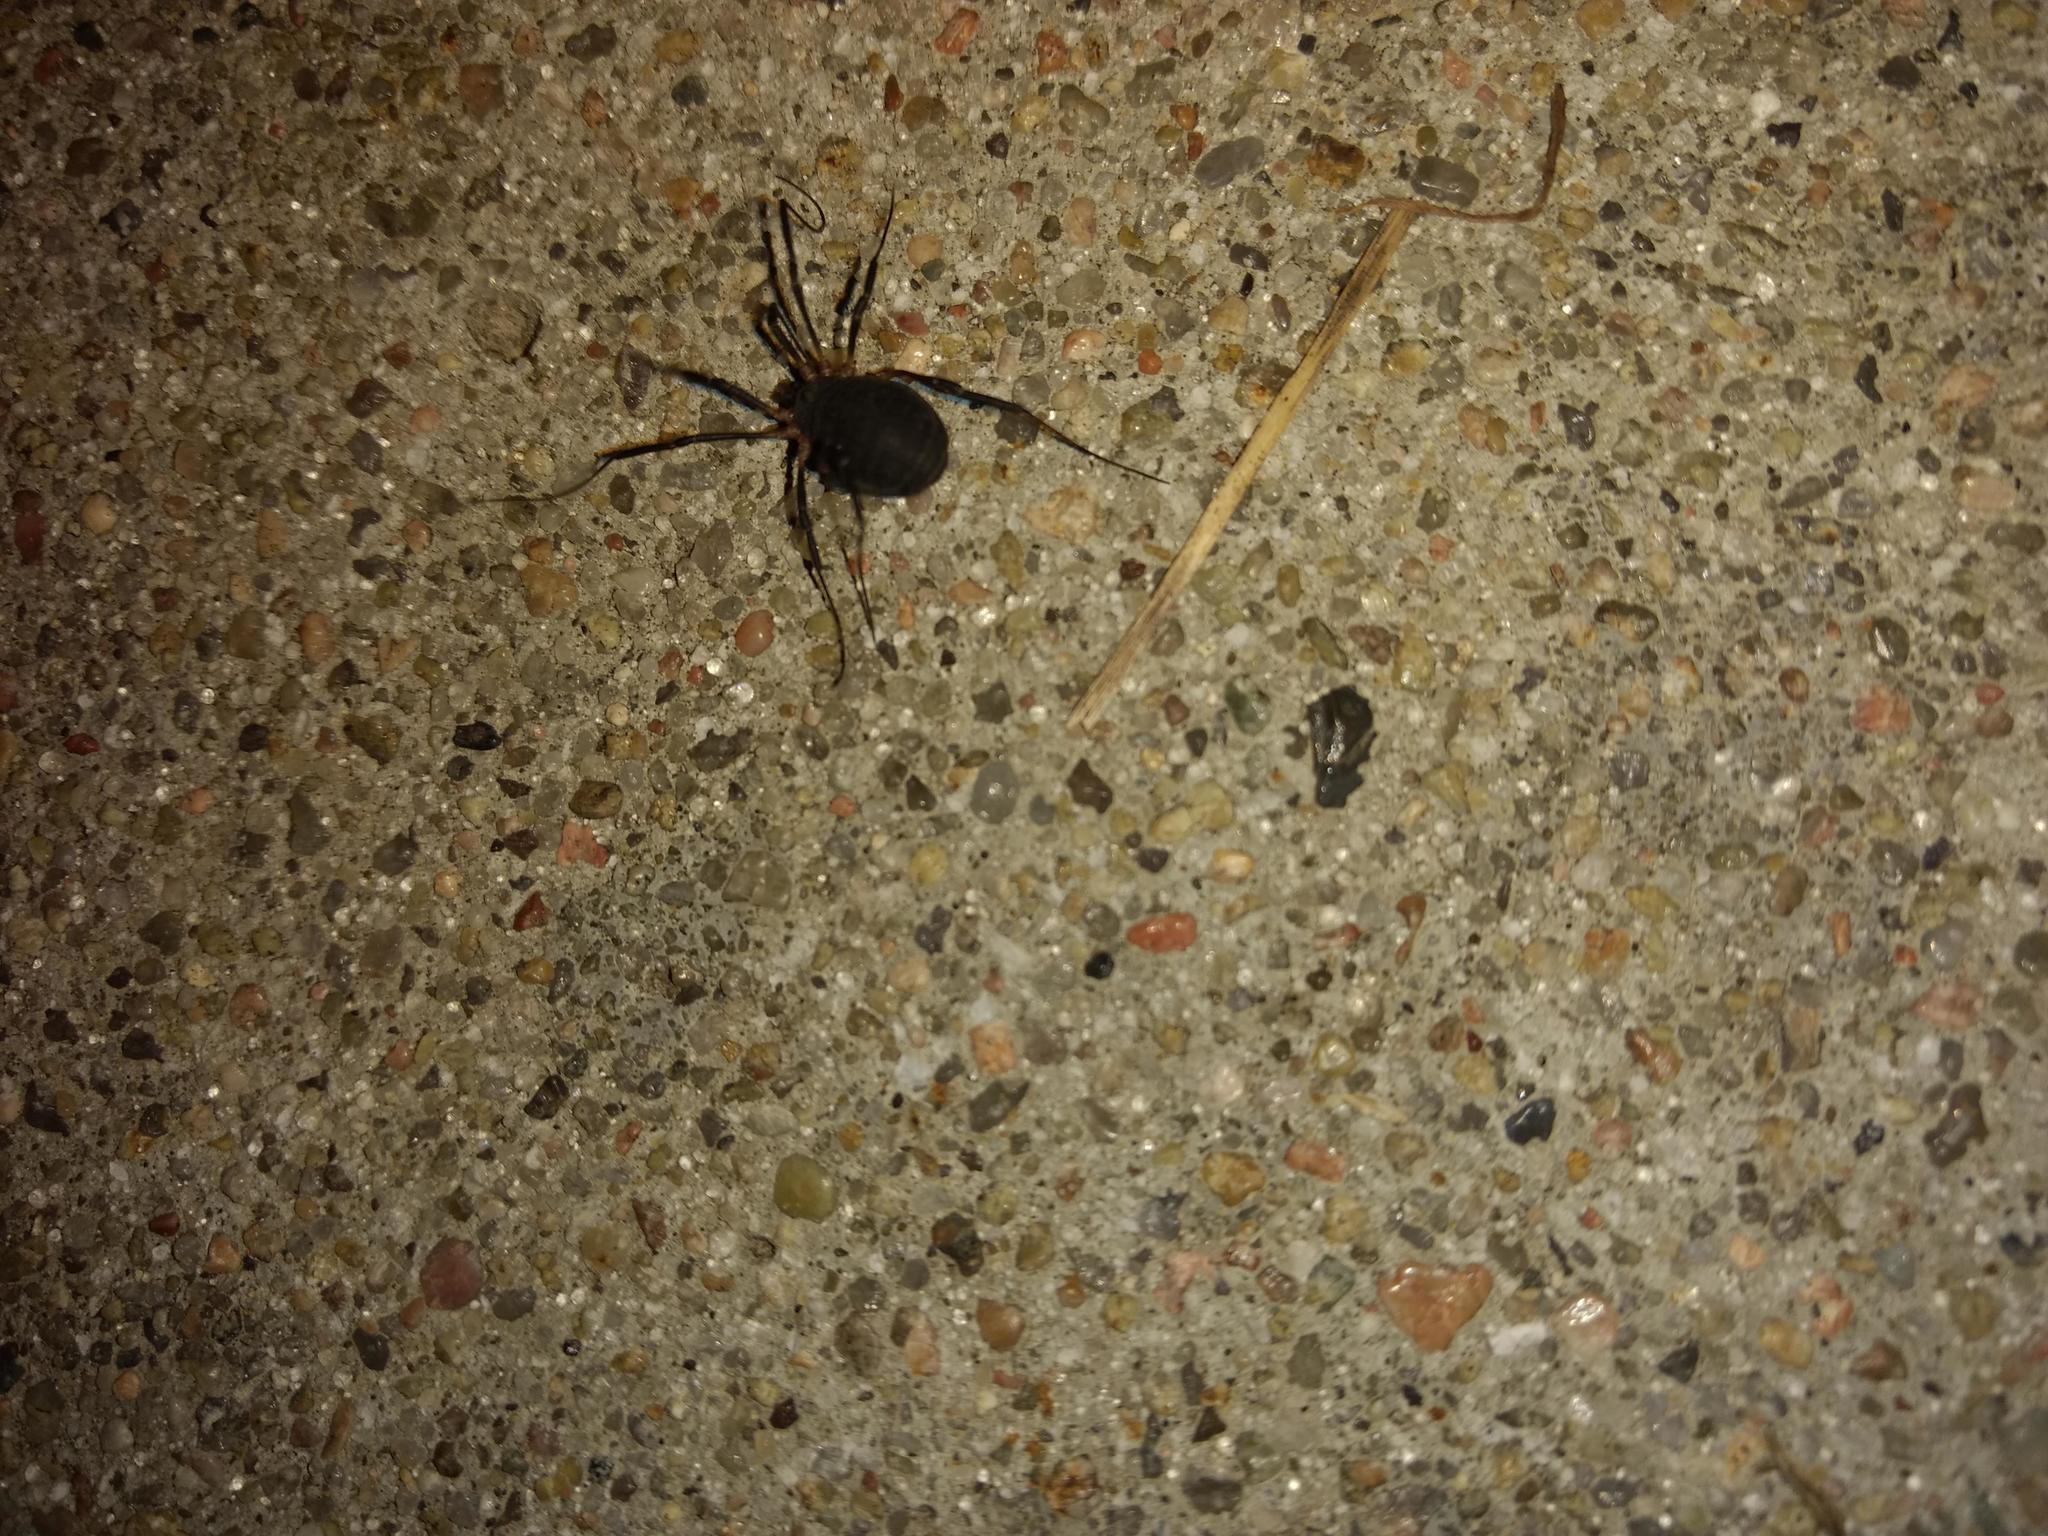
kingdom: Animalia
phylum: Arthropoda
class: Arachnida
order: Opiliones
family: Sclerosomatidae
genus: Eumesosoma
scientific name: Eumesosoma roeweri
